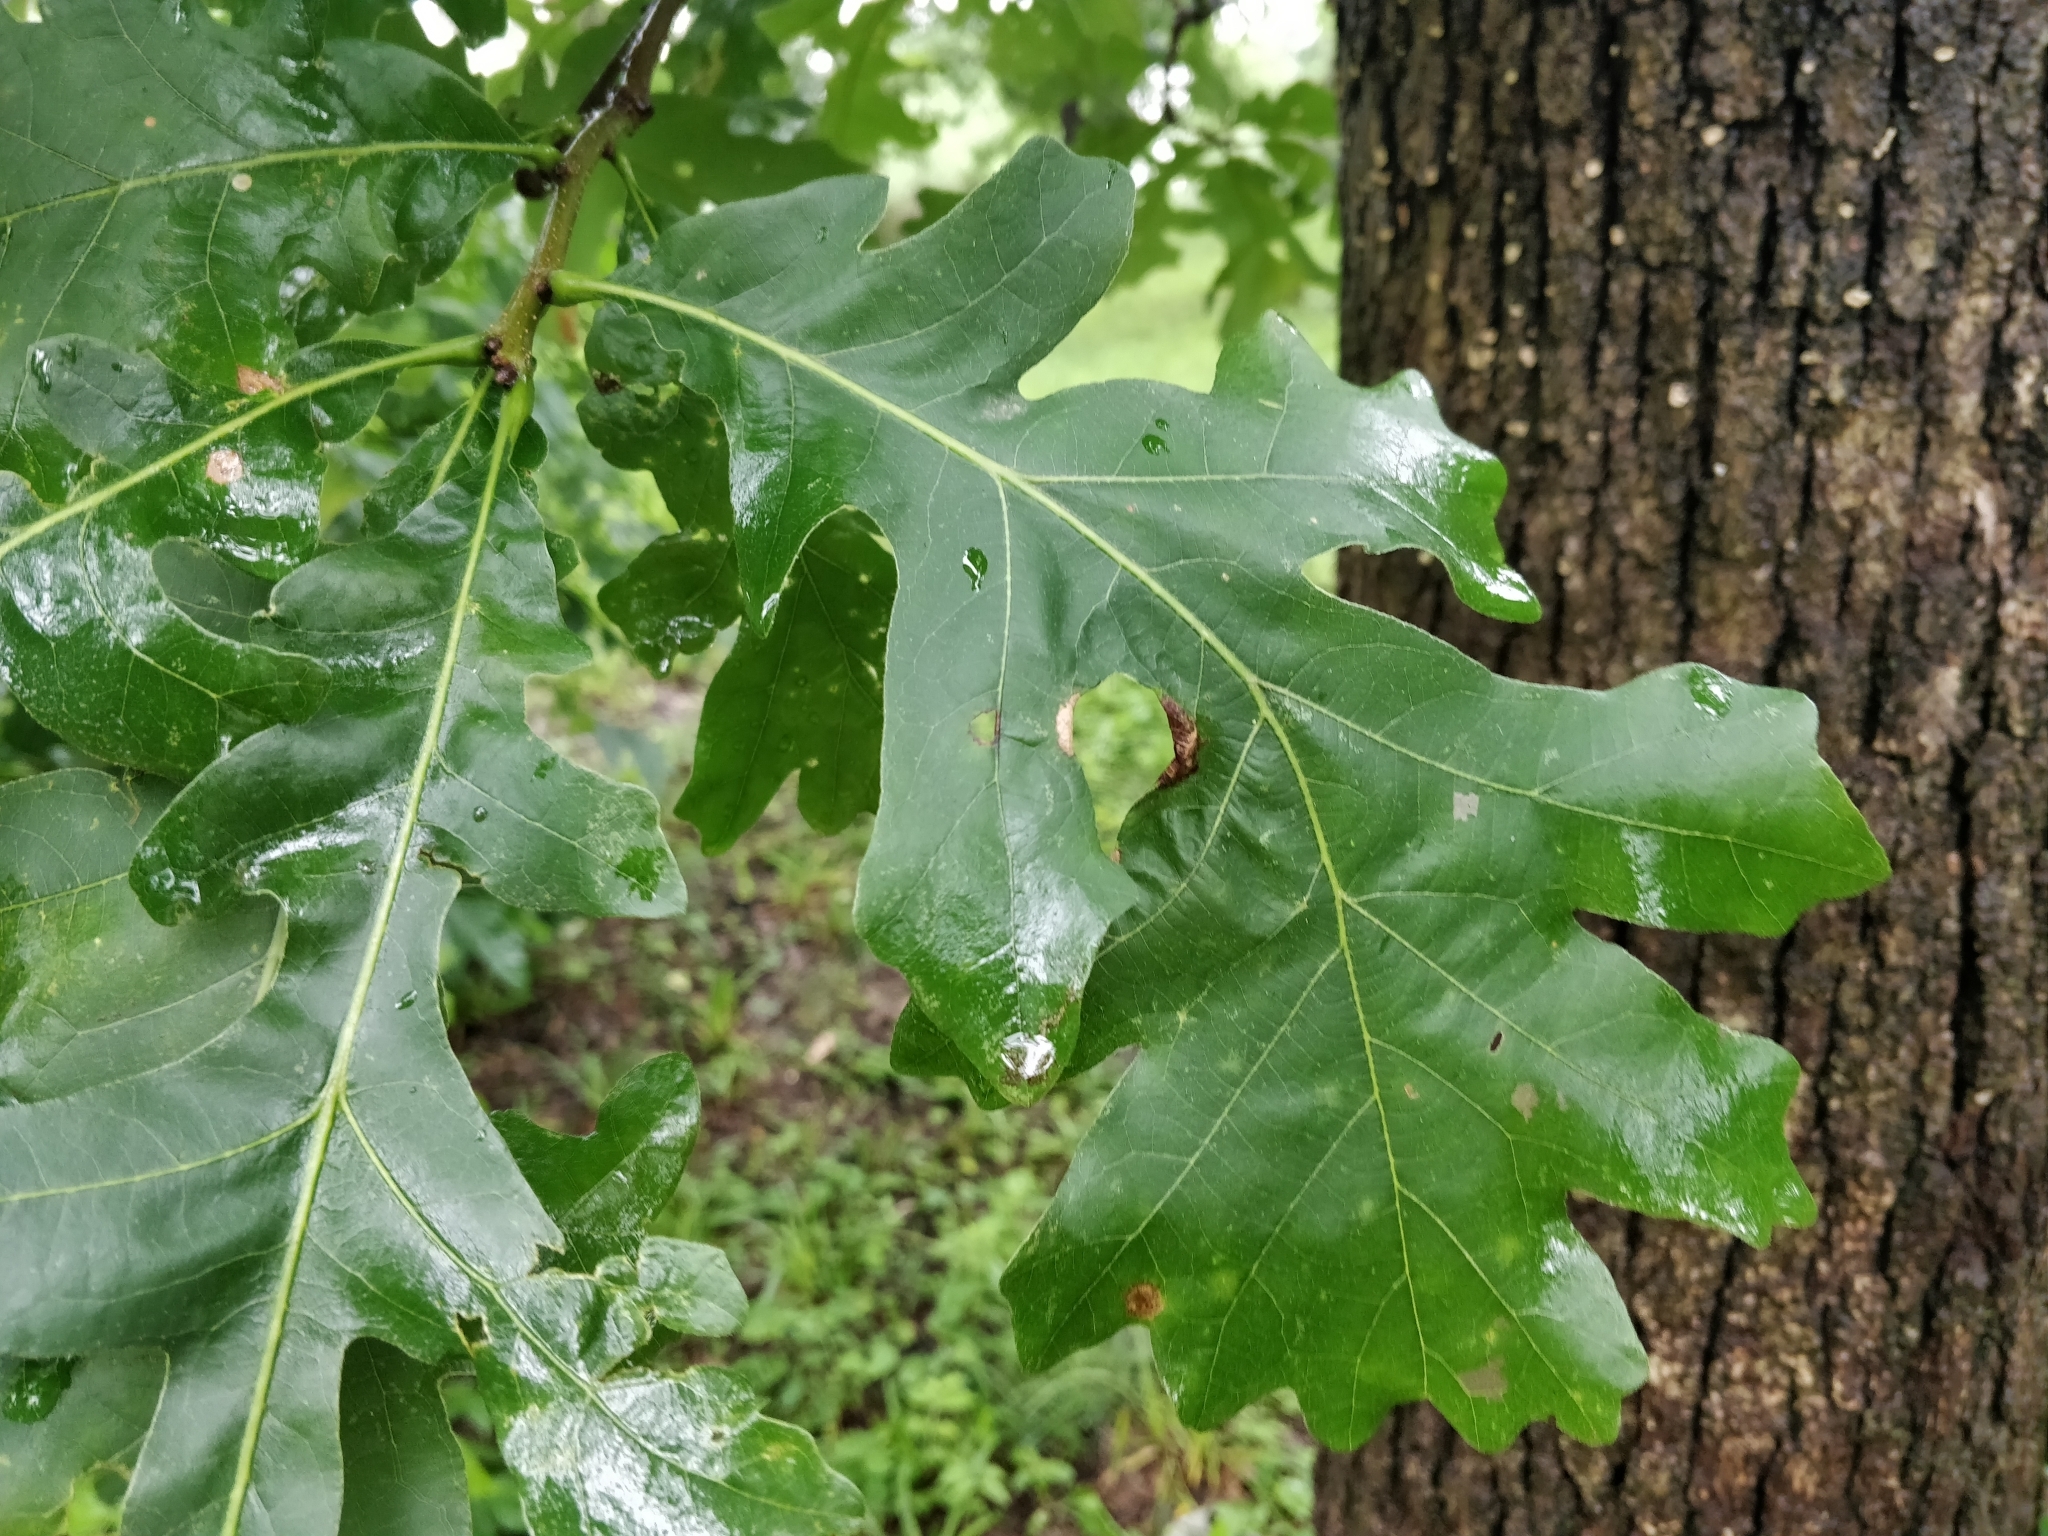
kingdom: Plantae
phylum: Tracheophyta
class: Magnoliopsida
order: Fagales
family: Fagaceae
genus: Quercus
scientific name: Quercus macrocarpa
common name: Bur oak
